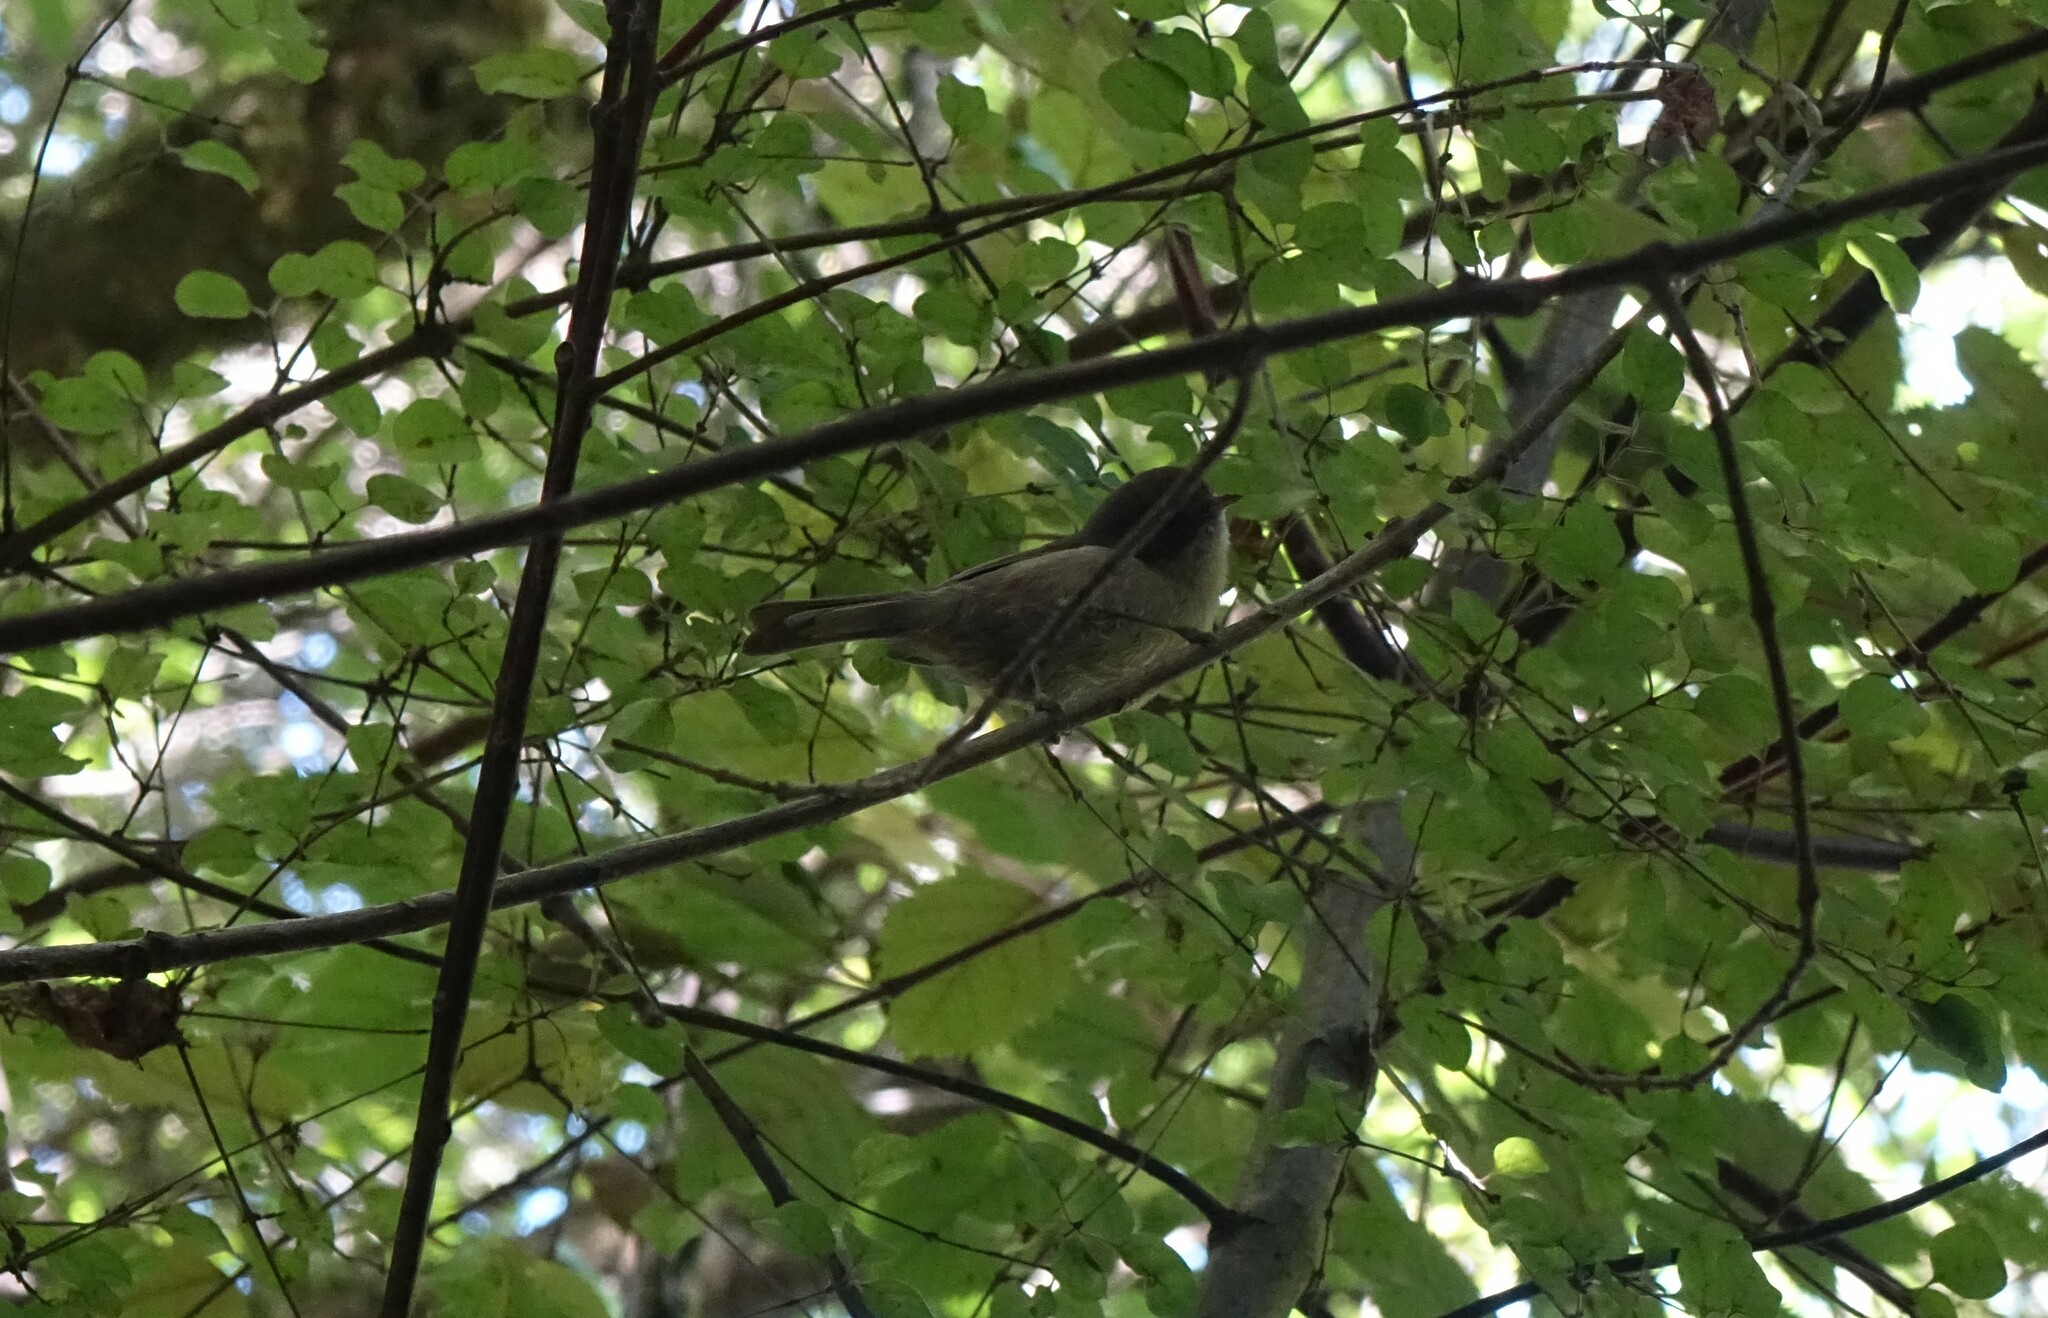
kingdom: Animalia
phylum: Chordata
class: Aves
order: Passeriformes
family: Acanthizidae
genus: Finschia
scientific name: Finschia novaeseelandiae
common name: Pipipi
